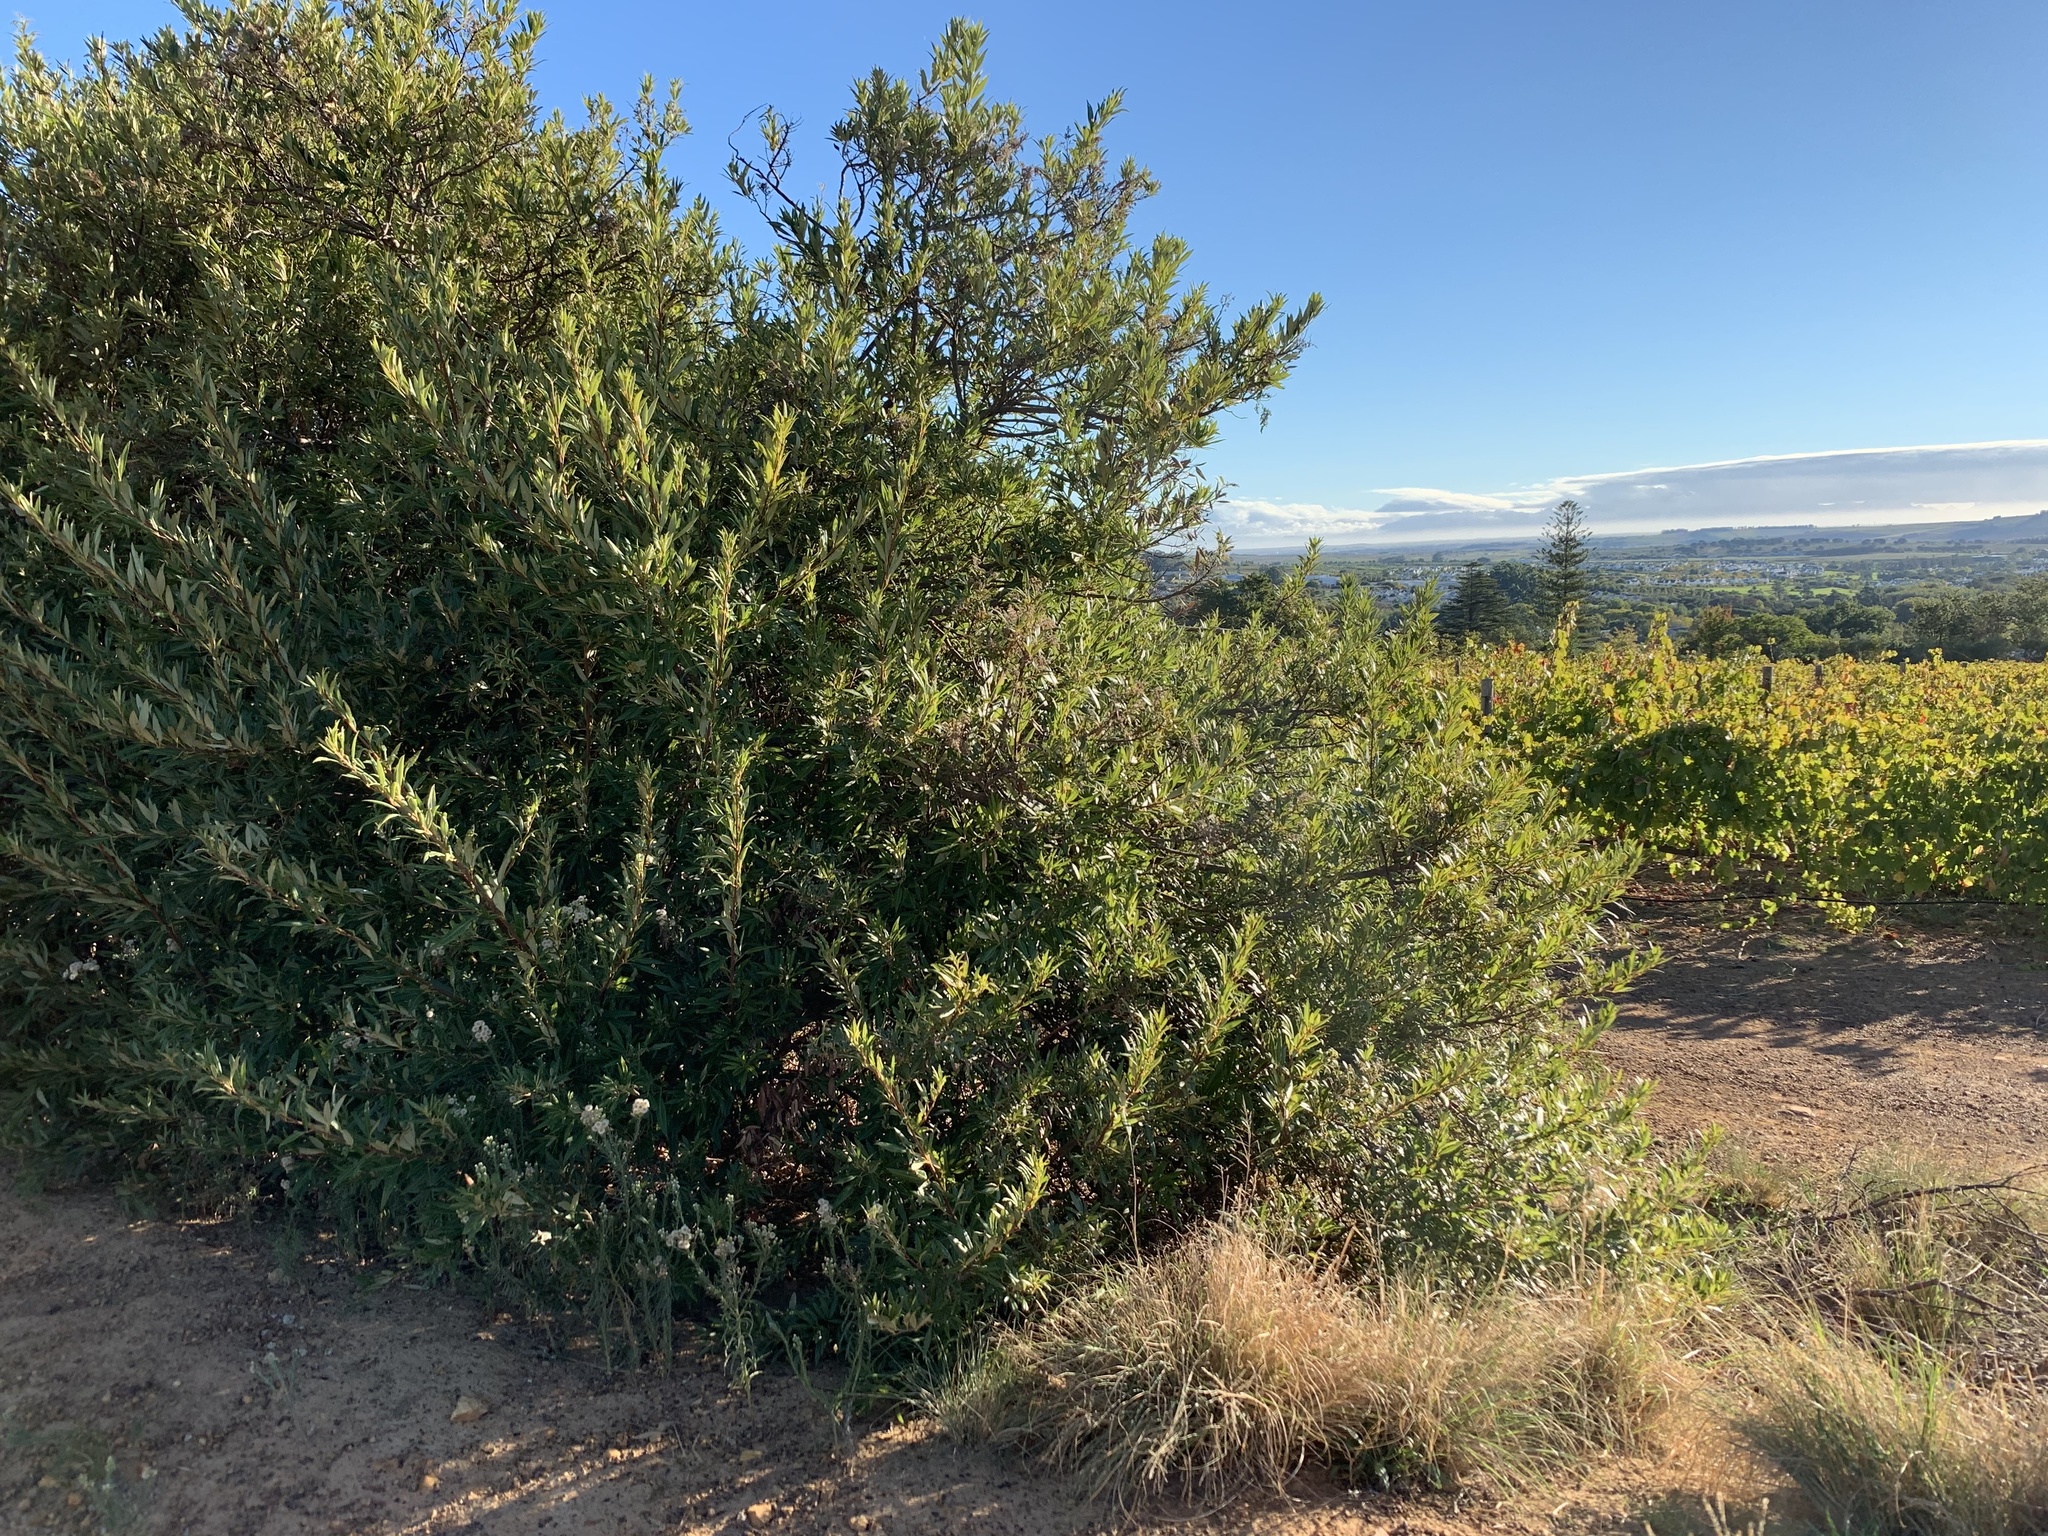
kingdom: Plantae
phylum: Tracheophyta
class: Magnoliopsida
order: Sapindales
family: Anacardiaceae
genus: Searsia
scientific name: Searsia angustifolia
